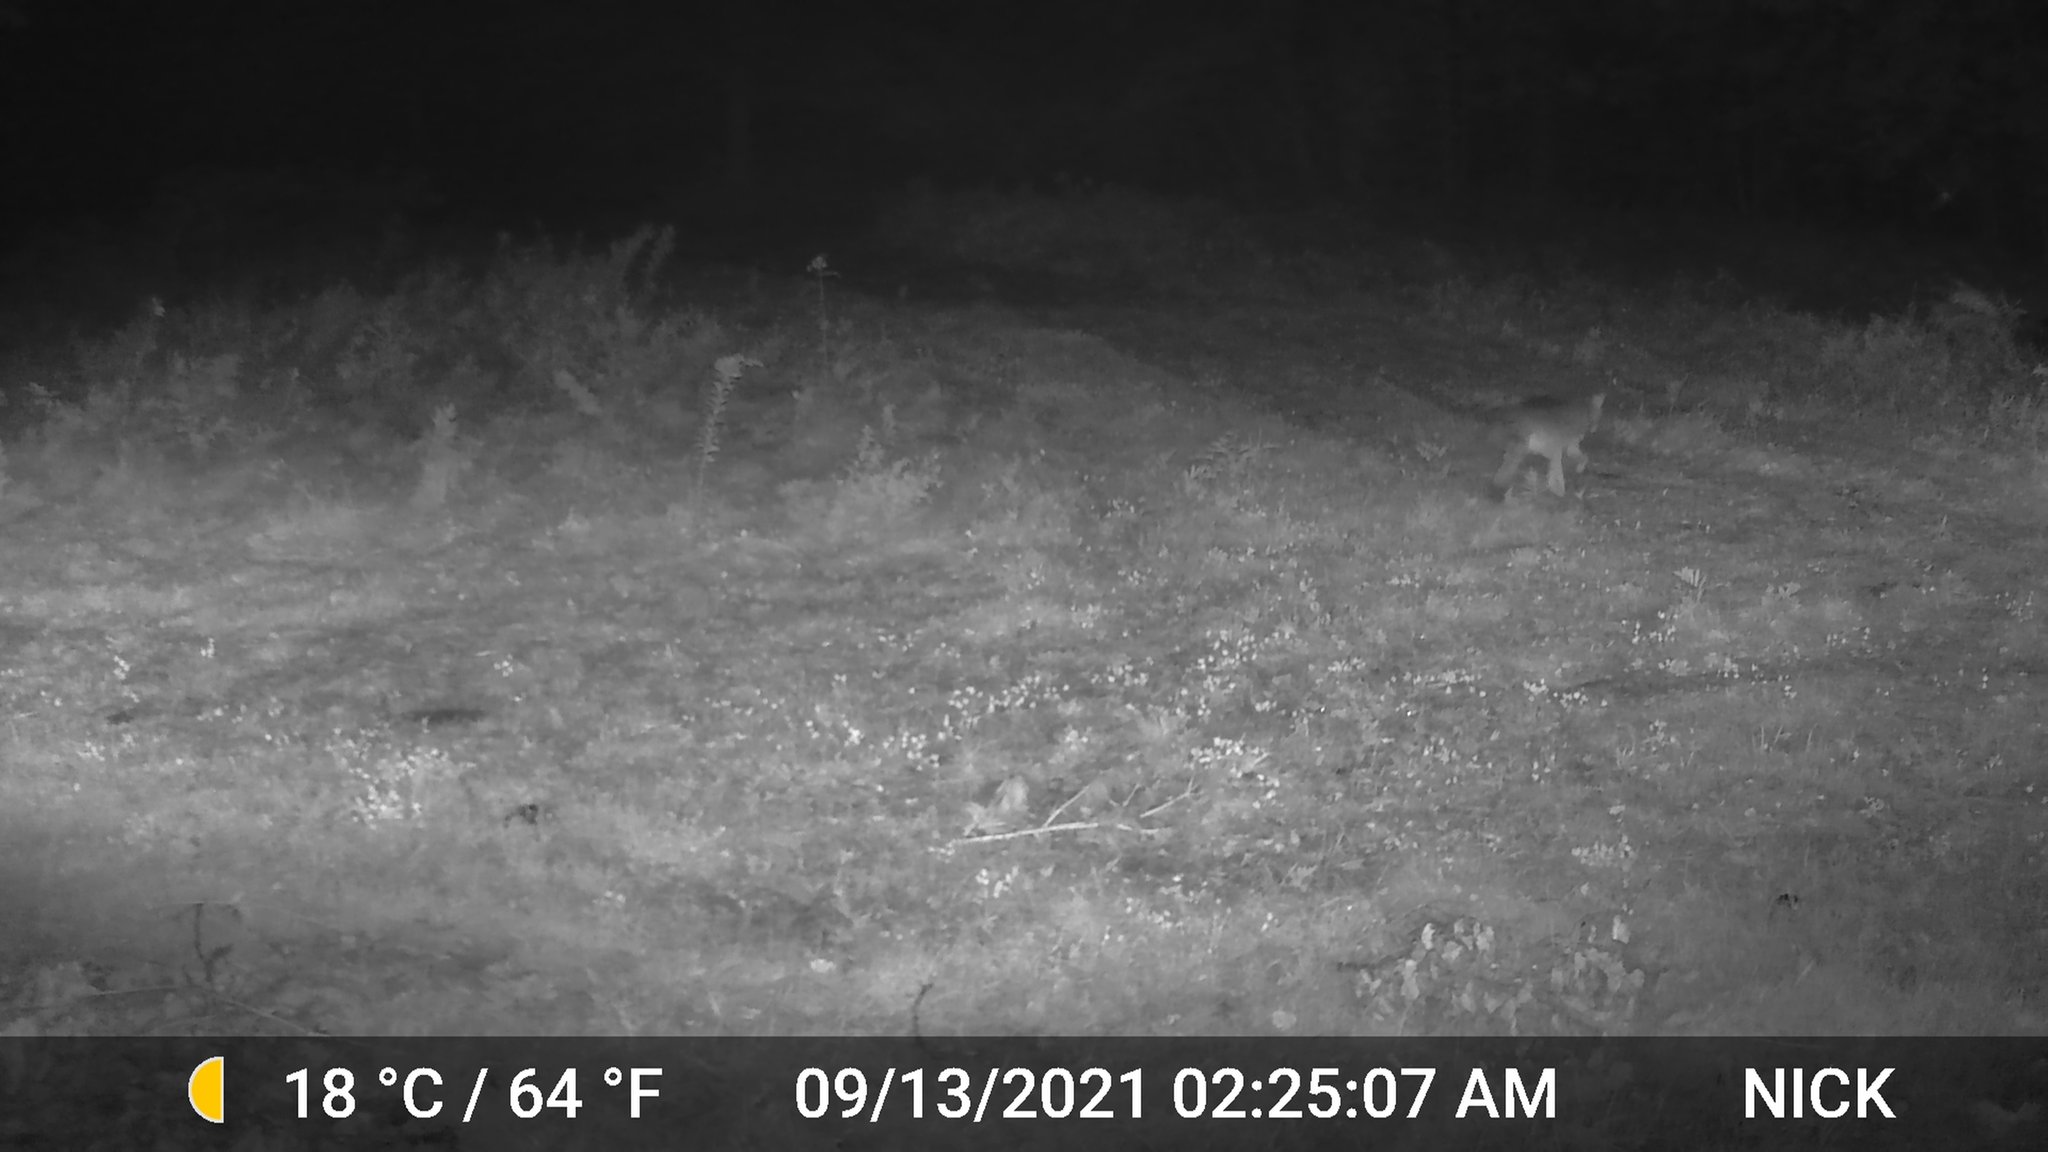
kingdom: Animalia
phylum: Chordata
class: Mammalia
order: Carnivora
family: Canidae
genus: Canis
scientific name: Canis latrans
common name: Coyote
